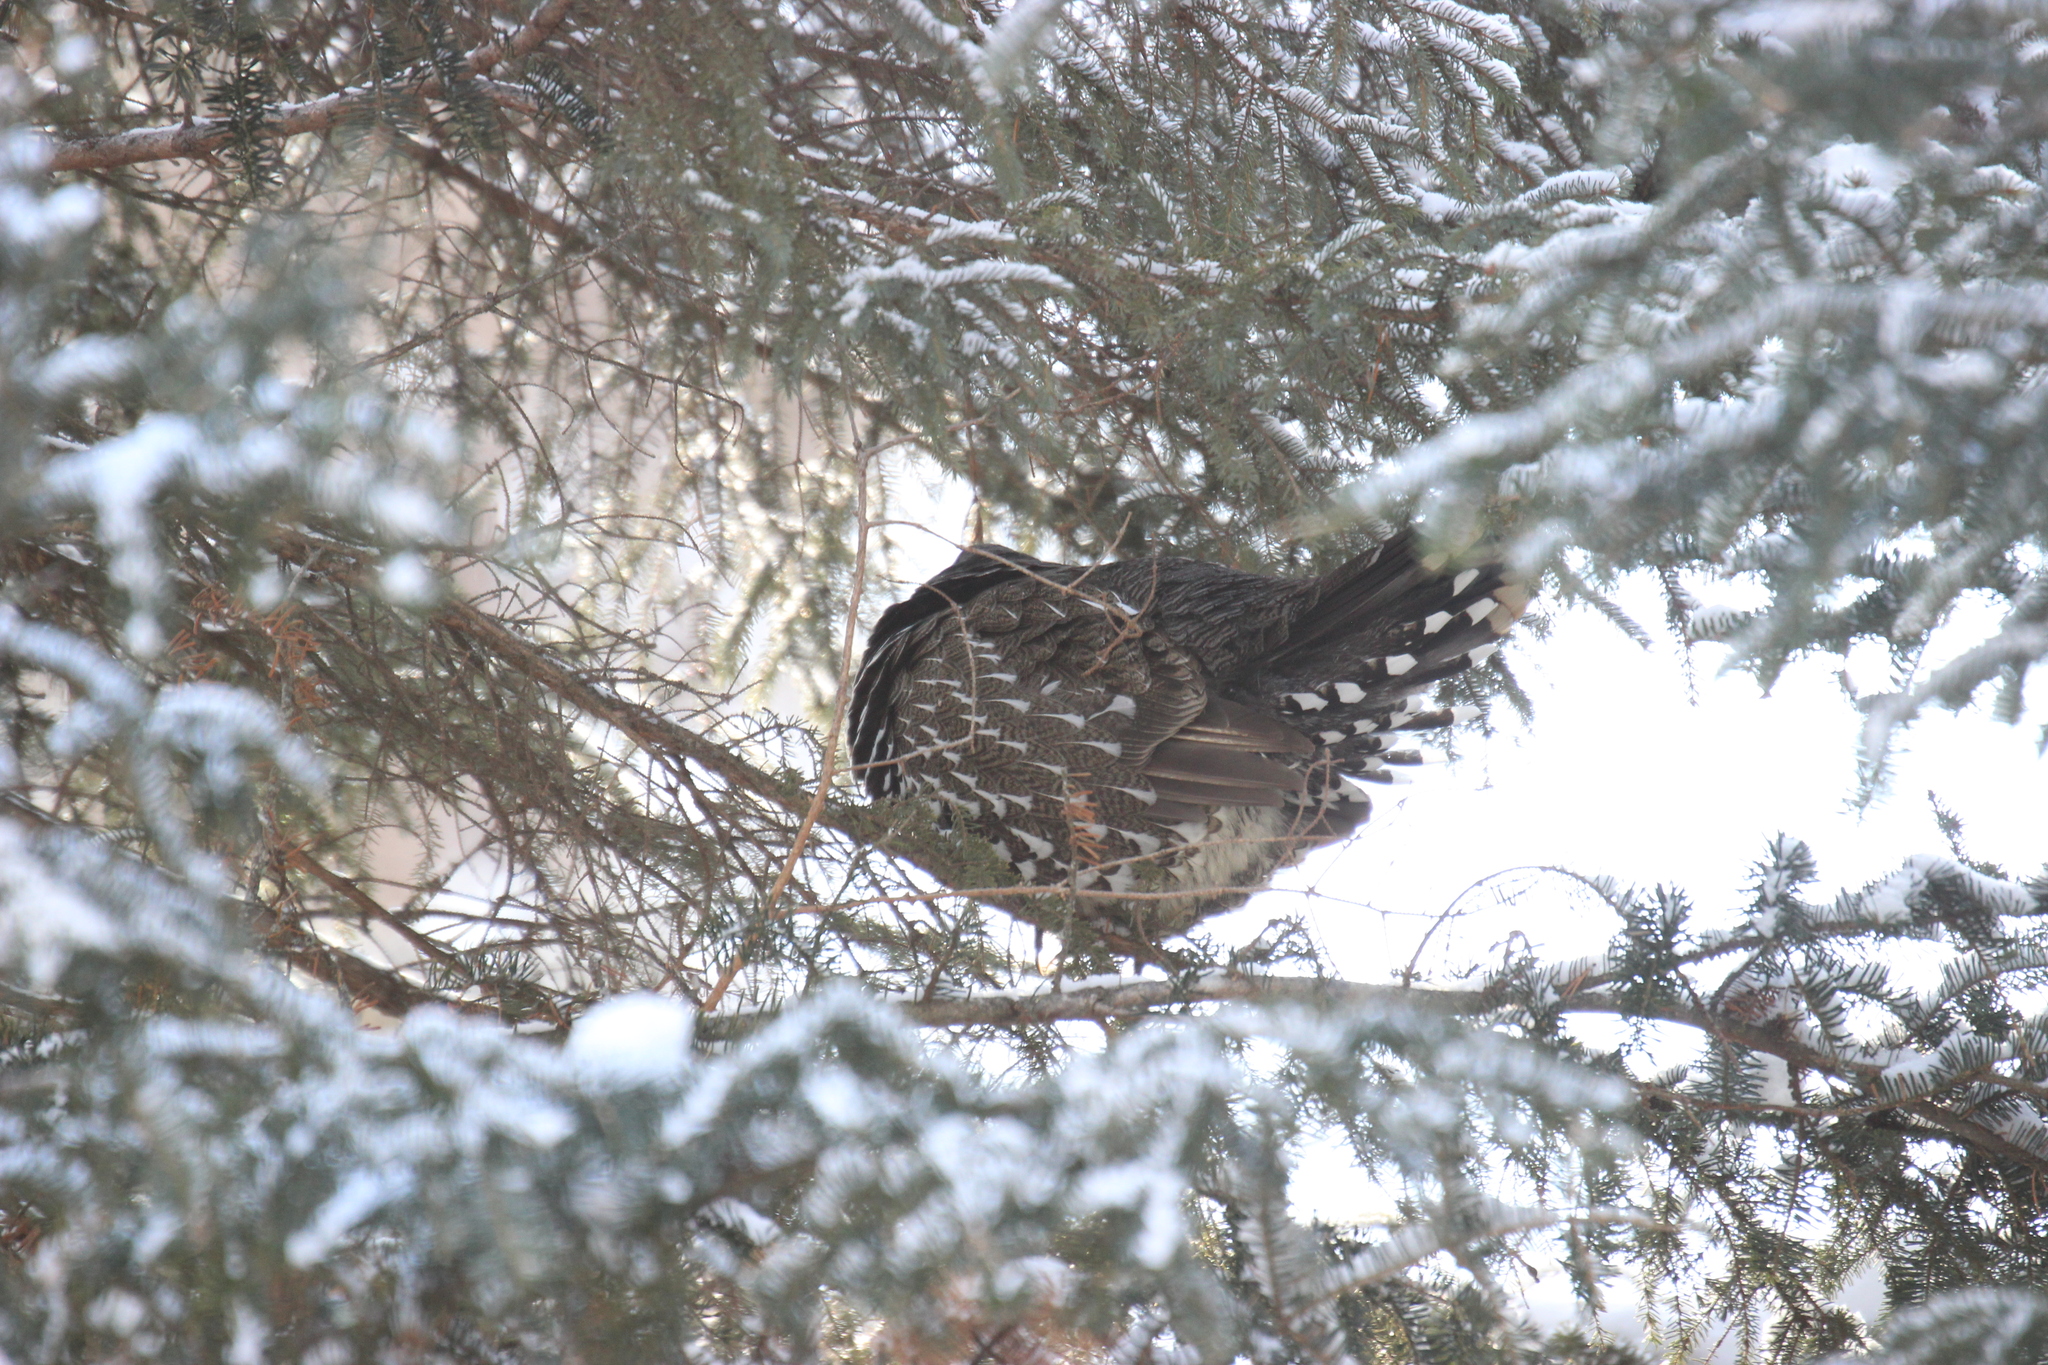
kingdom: Animalia
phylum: Chordata
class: Aves
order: Galliformes
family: Phasianidae
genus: Canachites
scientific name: Canachites canadensis
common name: Spruce grouse
